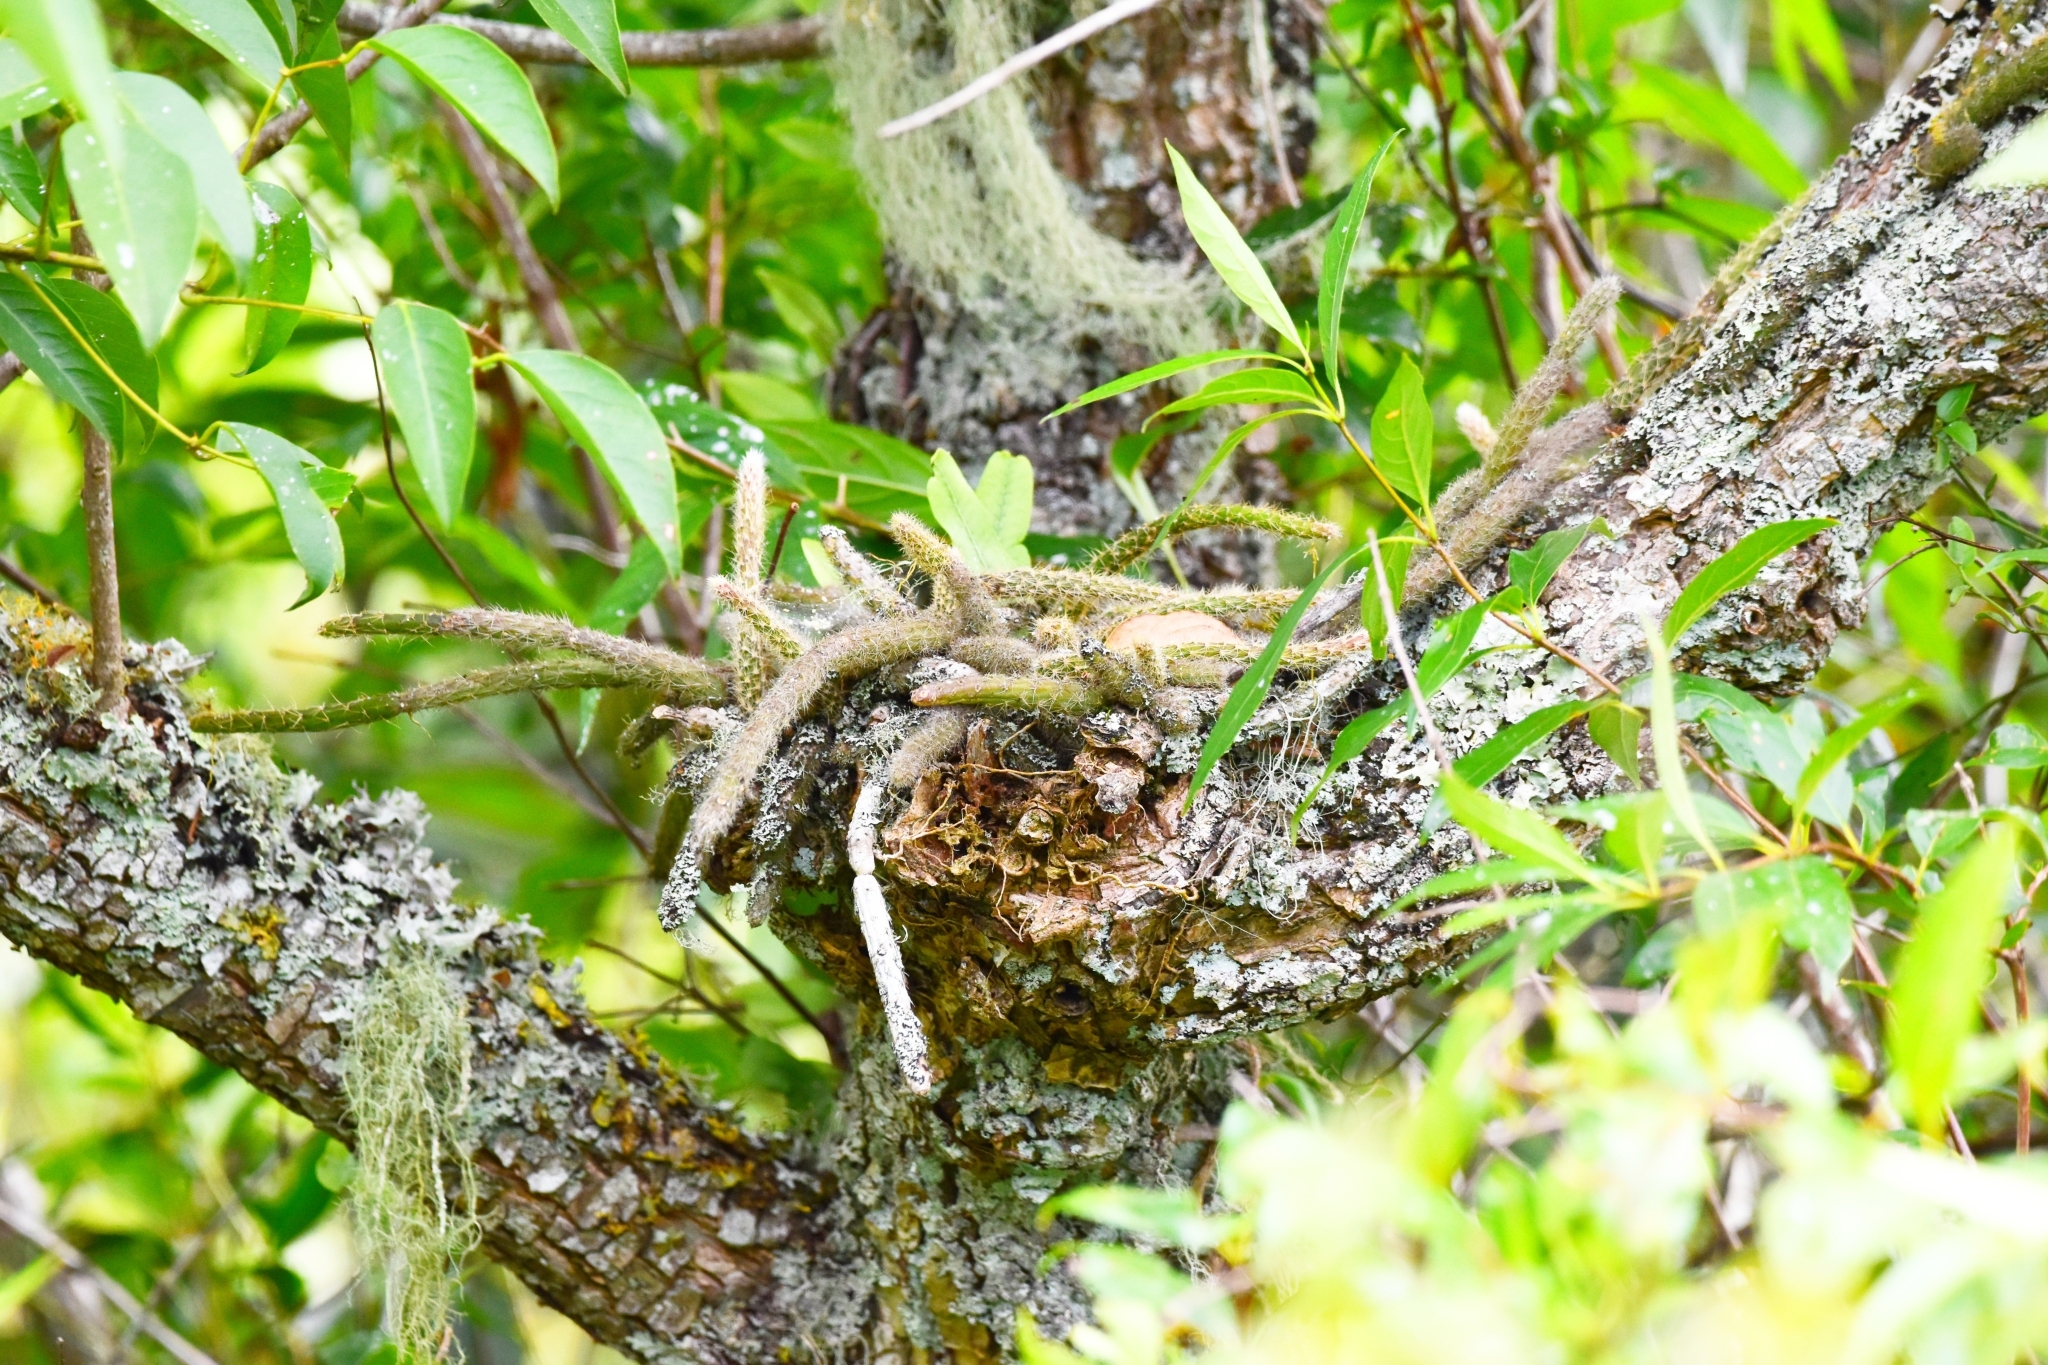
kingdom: Plantae
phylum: Tracheophyta
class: Magnoliopsida
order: Caryophyllales
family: Cactaceae
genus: Lepismium
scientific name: Lepismium lumbricoides
